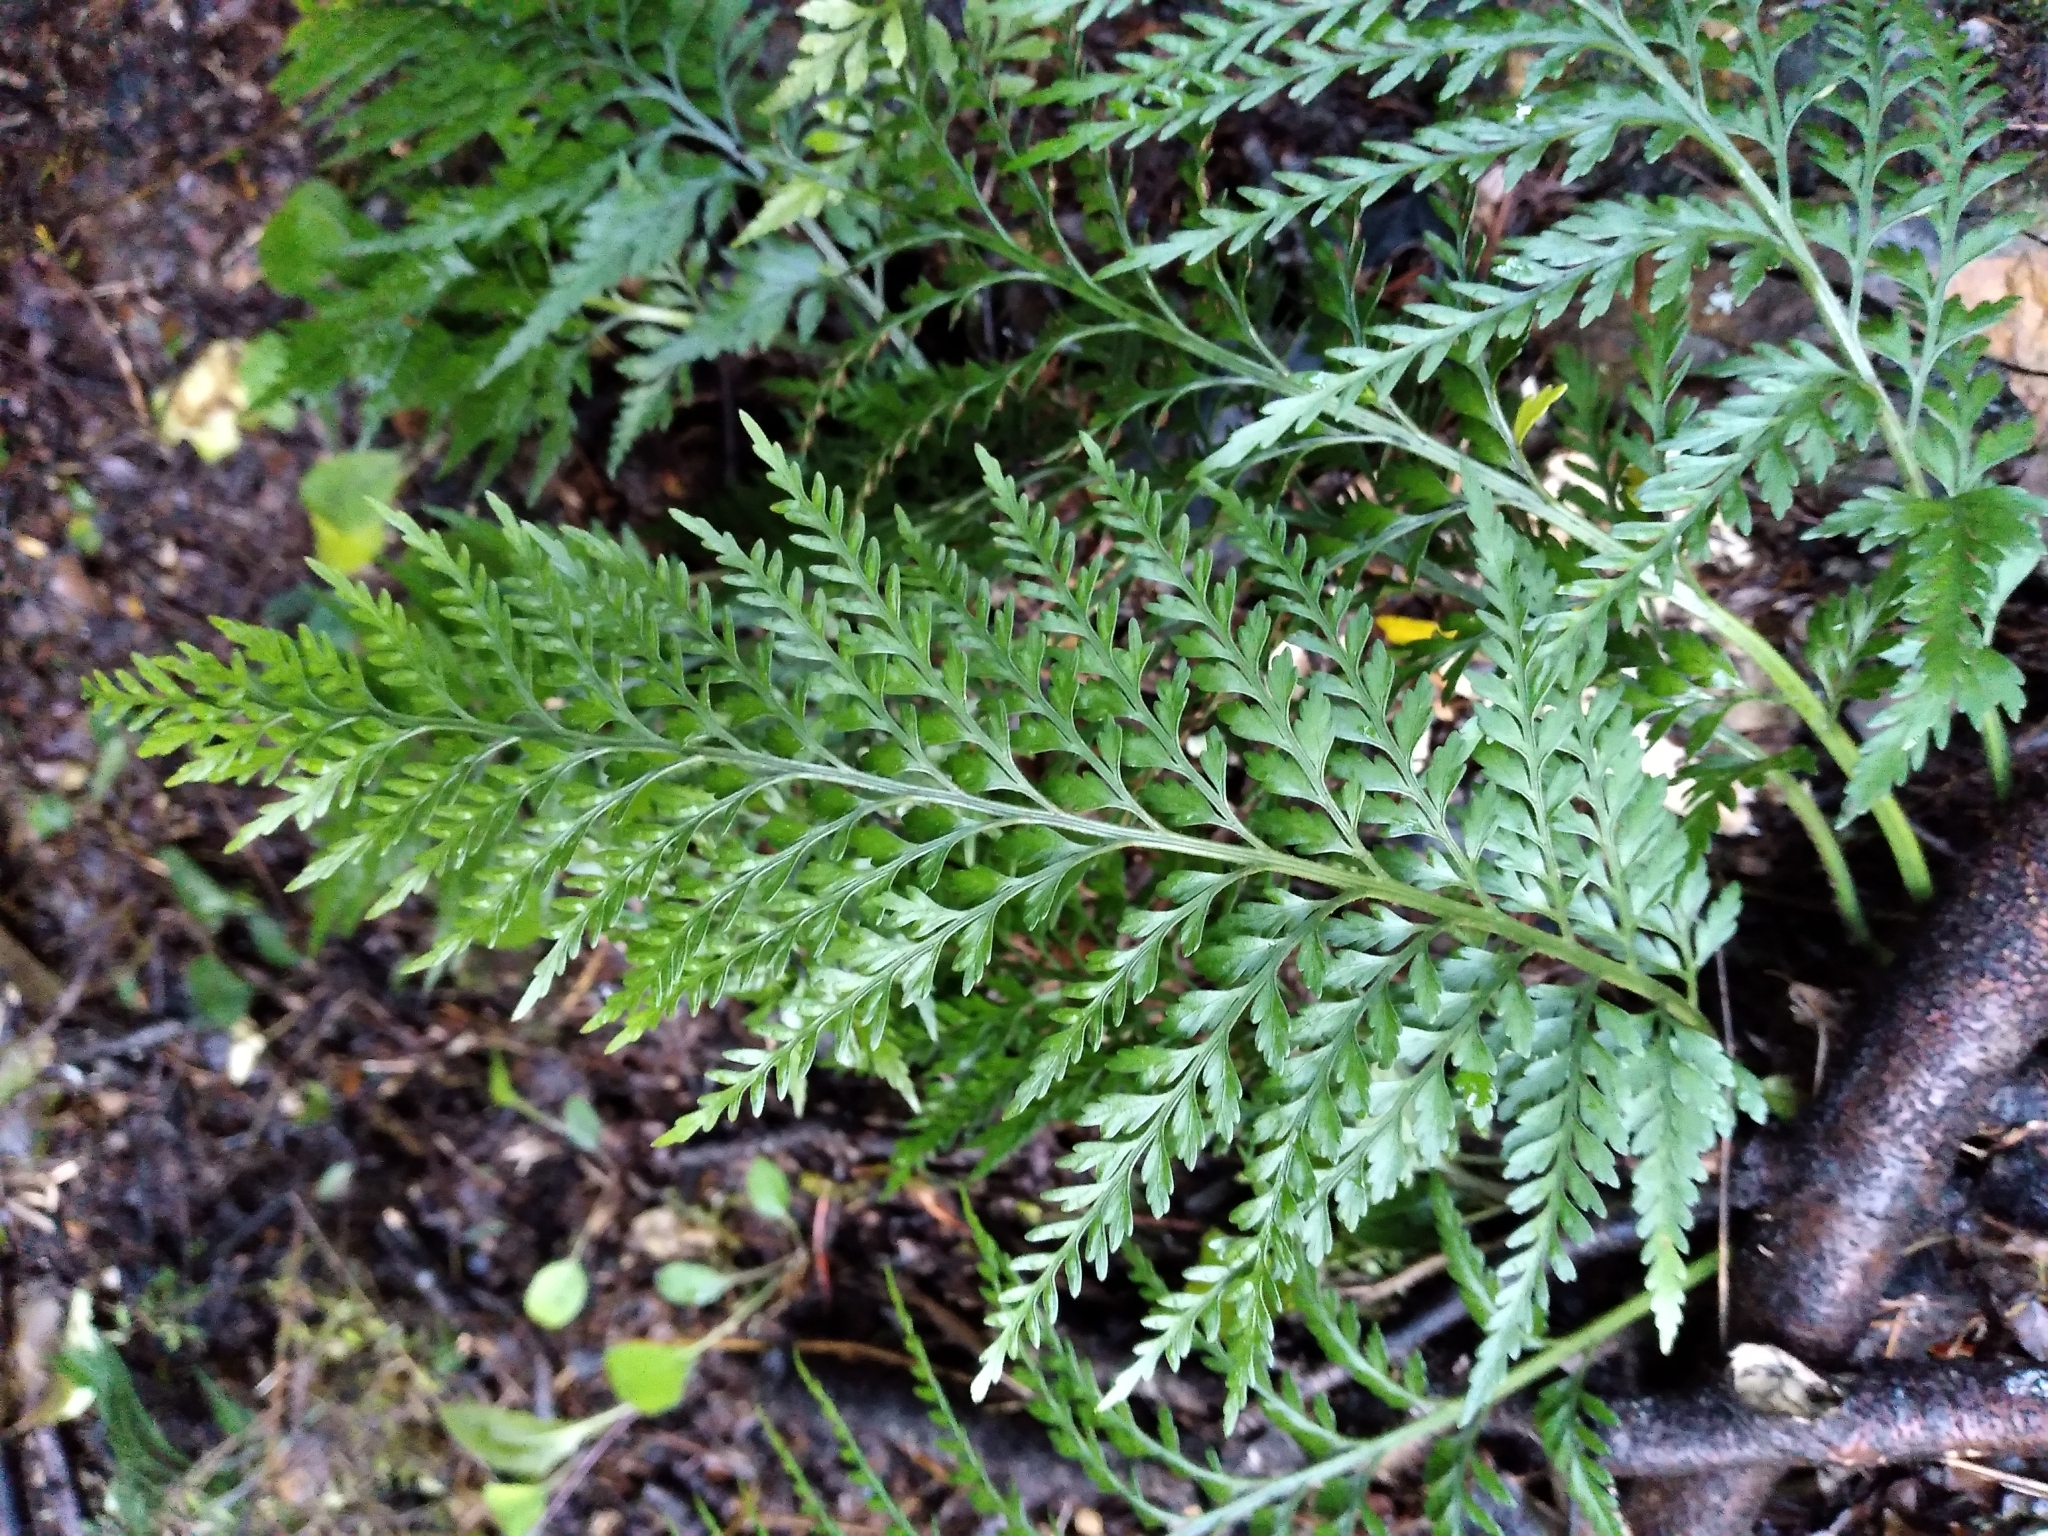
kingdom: Plantae
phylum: Tracheophyta
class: Polypodiopsida
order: Polypodiales
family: Aspleniaceae
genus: Asplenium
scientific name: Asplenium appendiculatum
